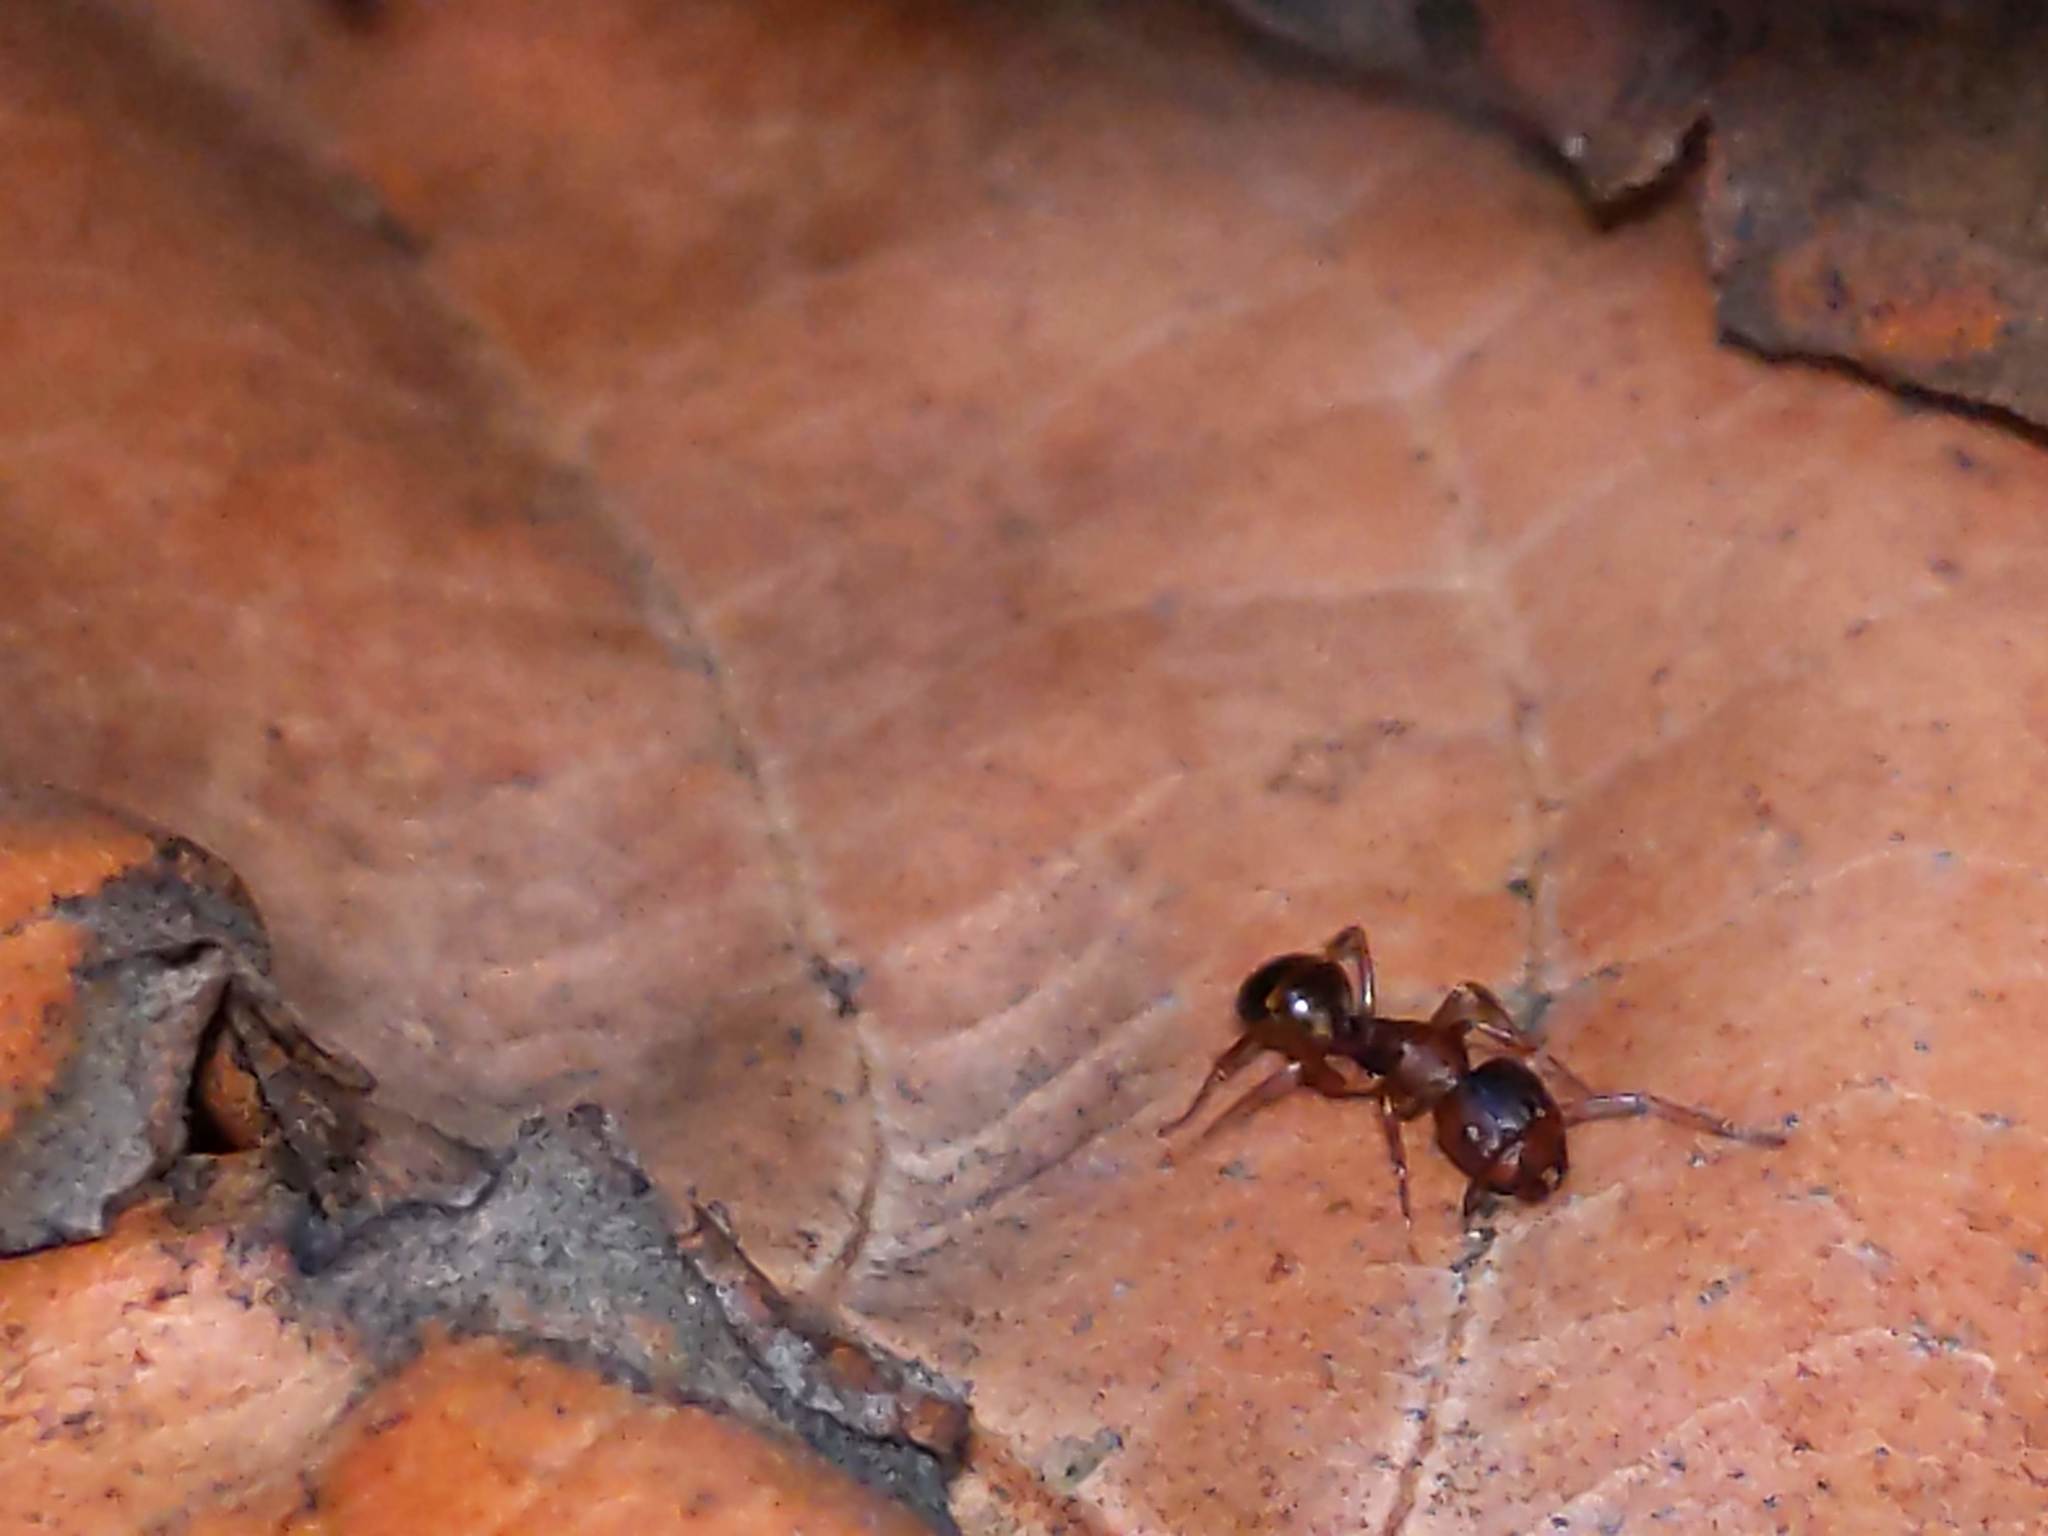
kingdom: Animalia
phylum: Arthropoda
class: Insecta
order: Hymenoptera
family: Formicidae
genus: Camponotus
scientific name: Camponotus subbarbatus
